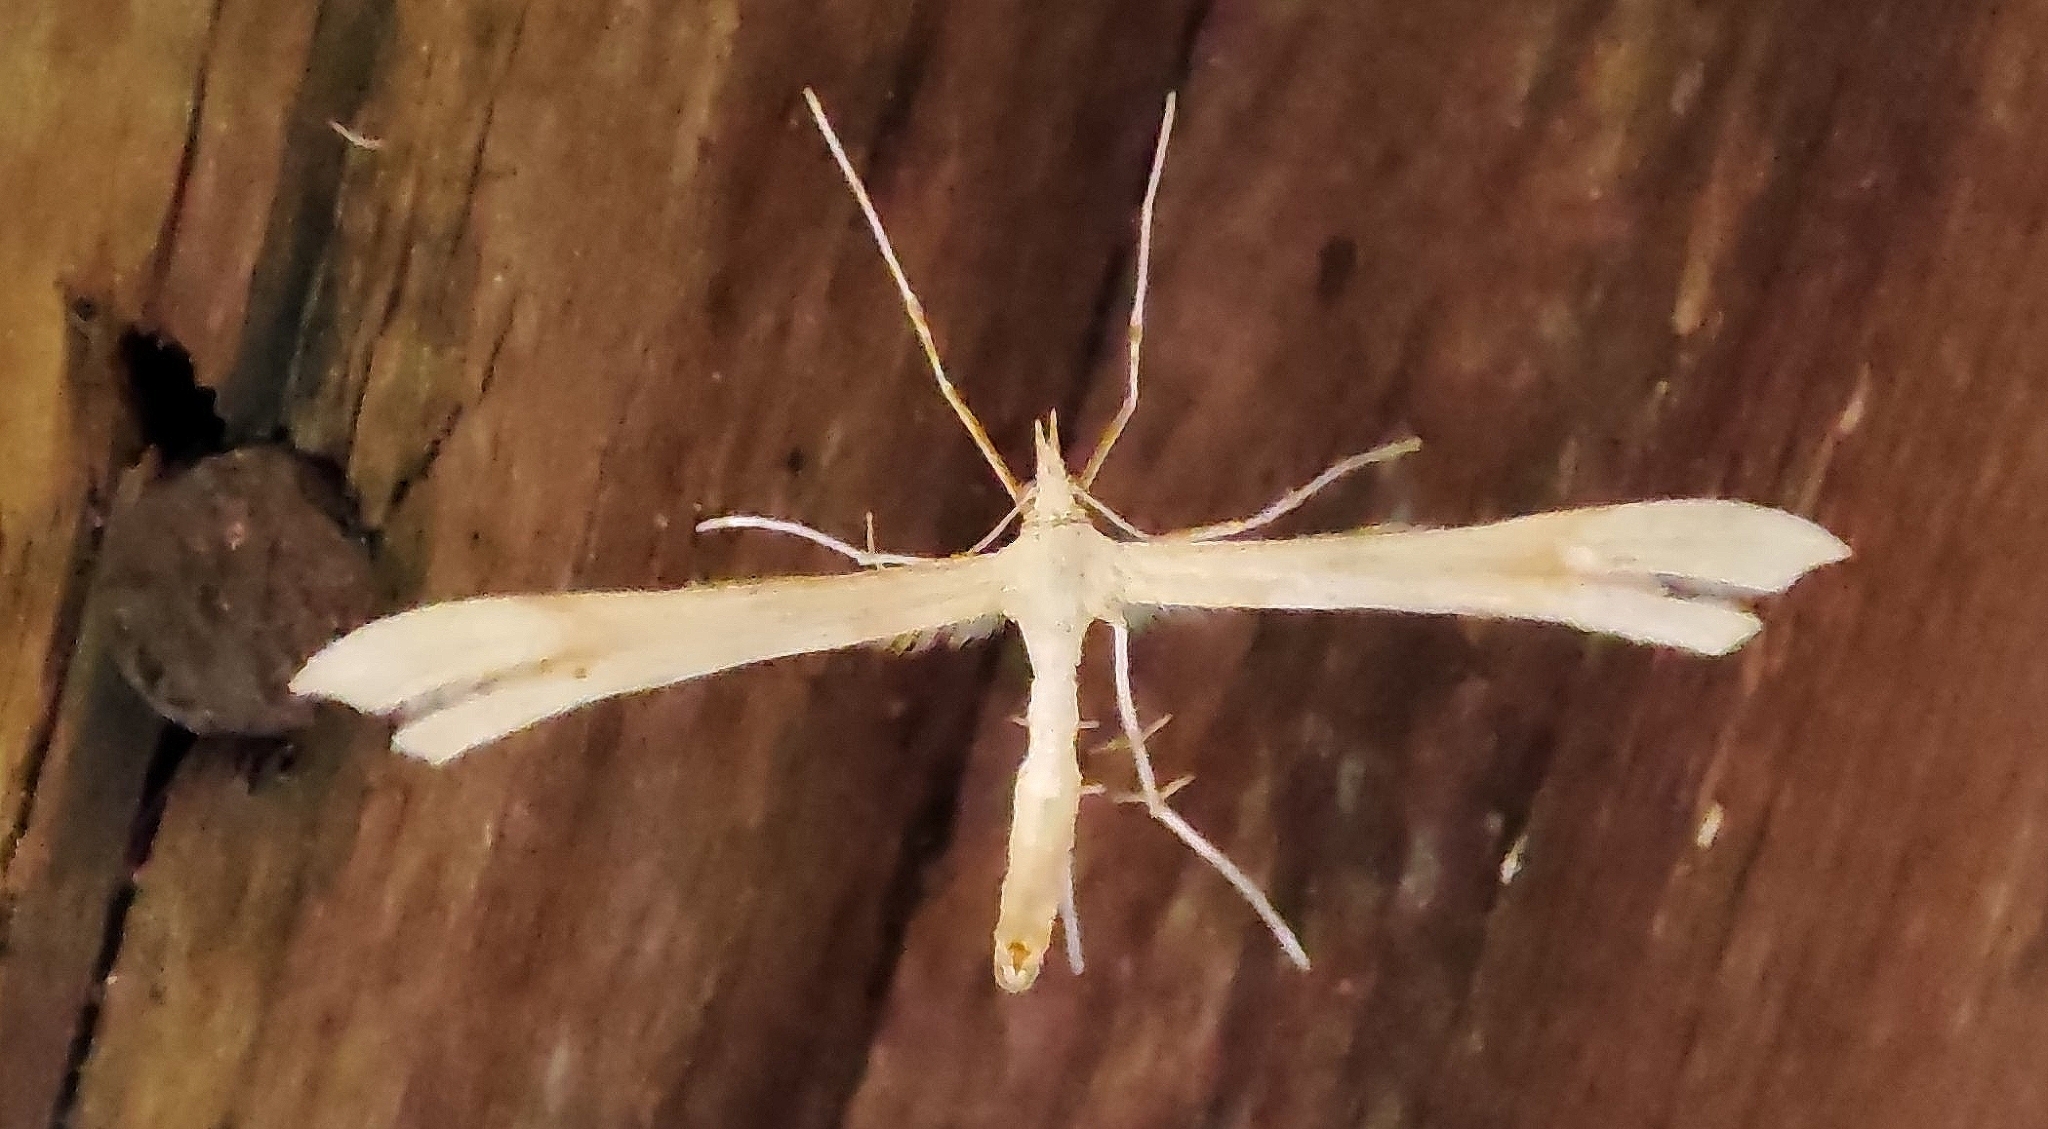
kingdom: Animalia
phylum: Arthropoda
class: Insecta
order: Lepidoptera
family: Pterophoridae
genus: Gillmeria
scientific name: Gillmeria pallidactyla
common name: Yarrow plume
